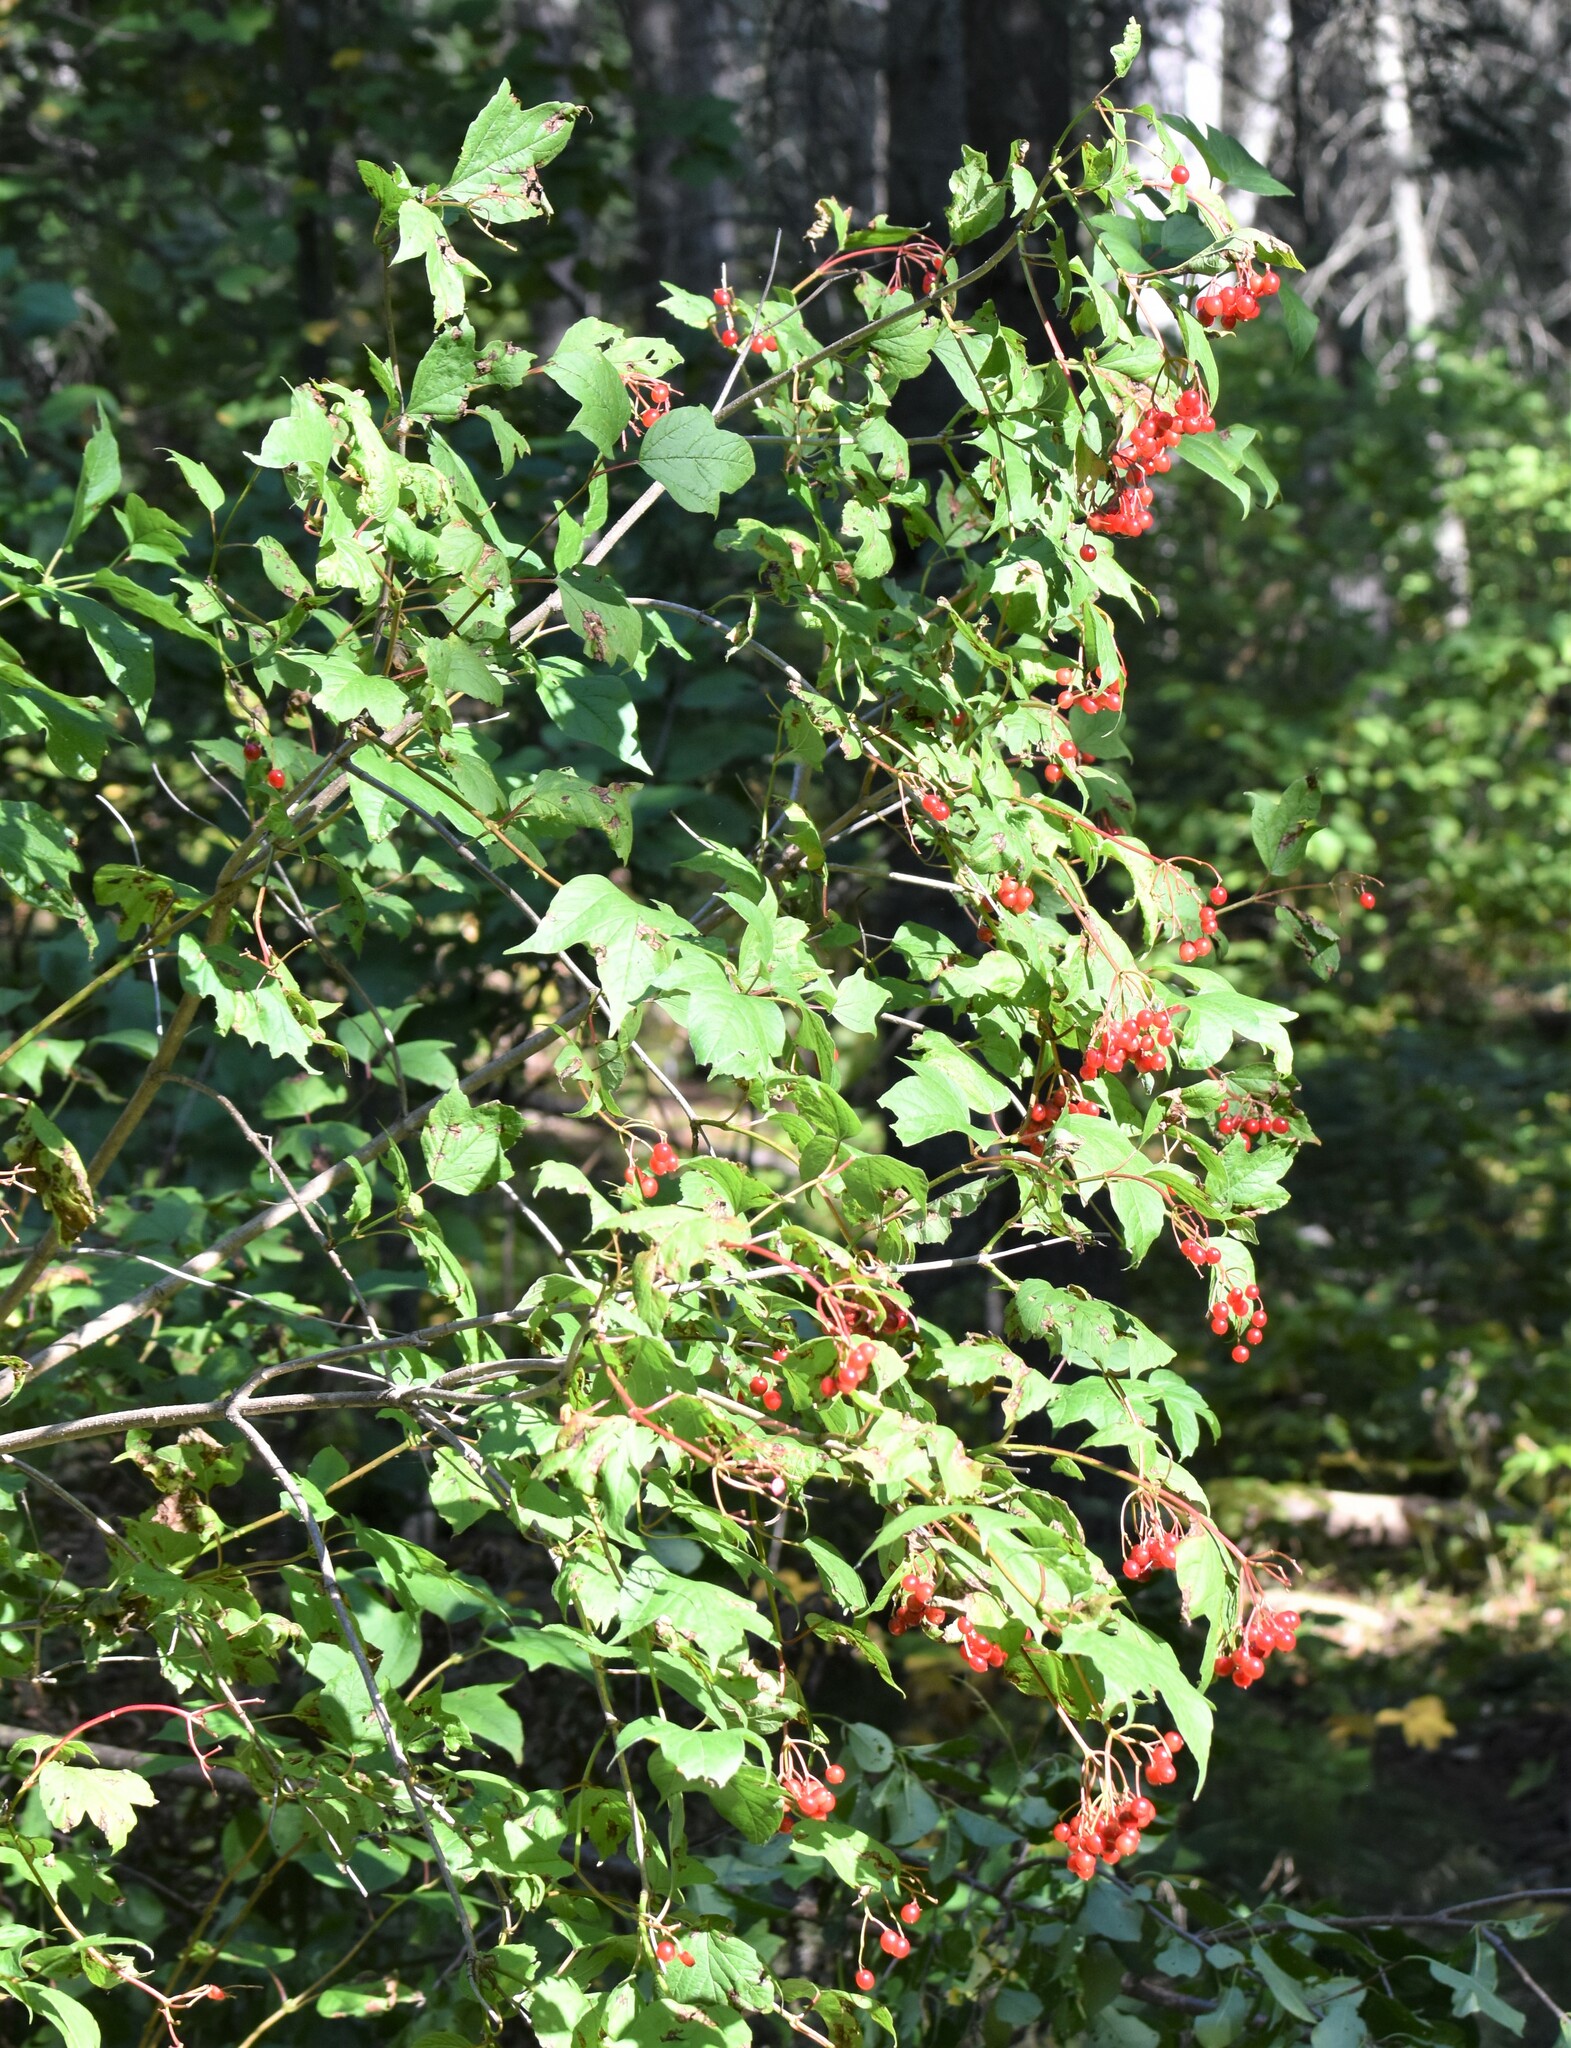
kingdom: Plantae
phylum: Tracheophyta
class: Magnoliopsida
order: Dipsacales
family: Viburnaceae
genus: Viburnum
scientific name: Viburnum opulus
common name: Guelder-rose
